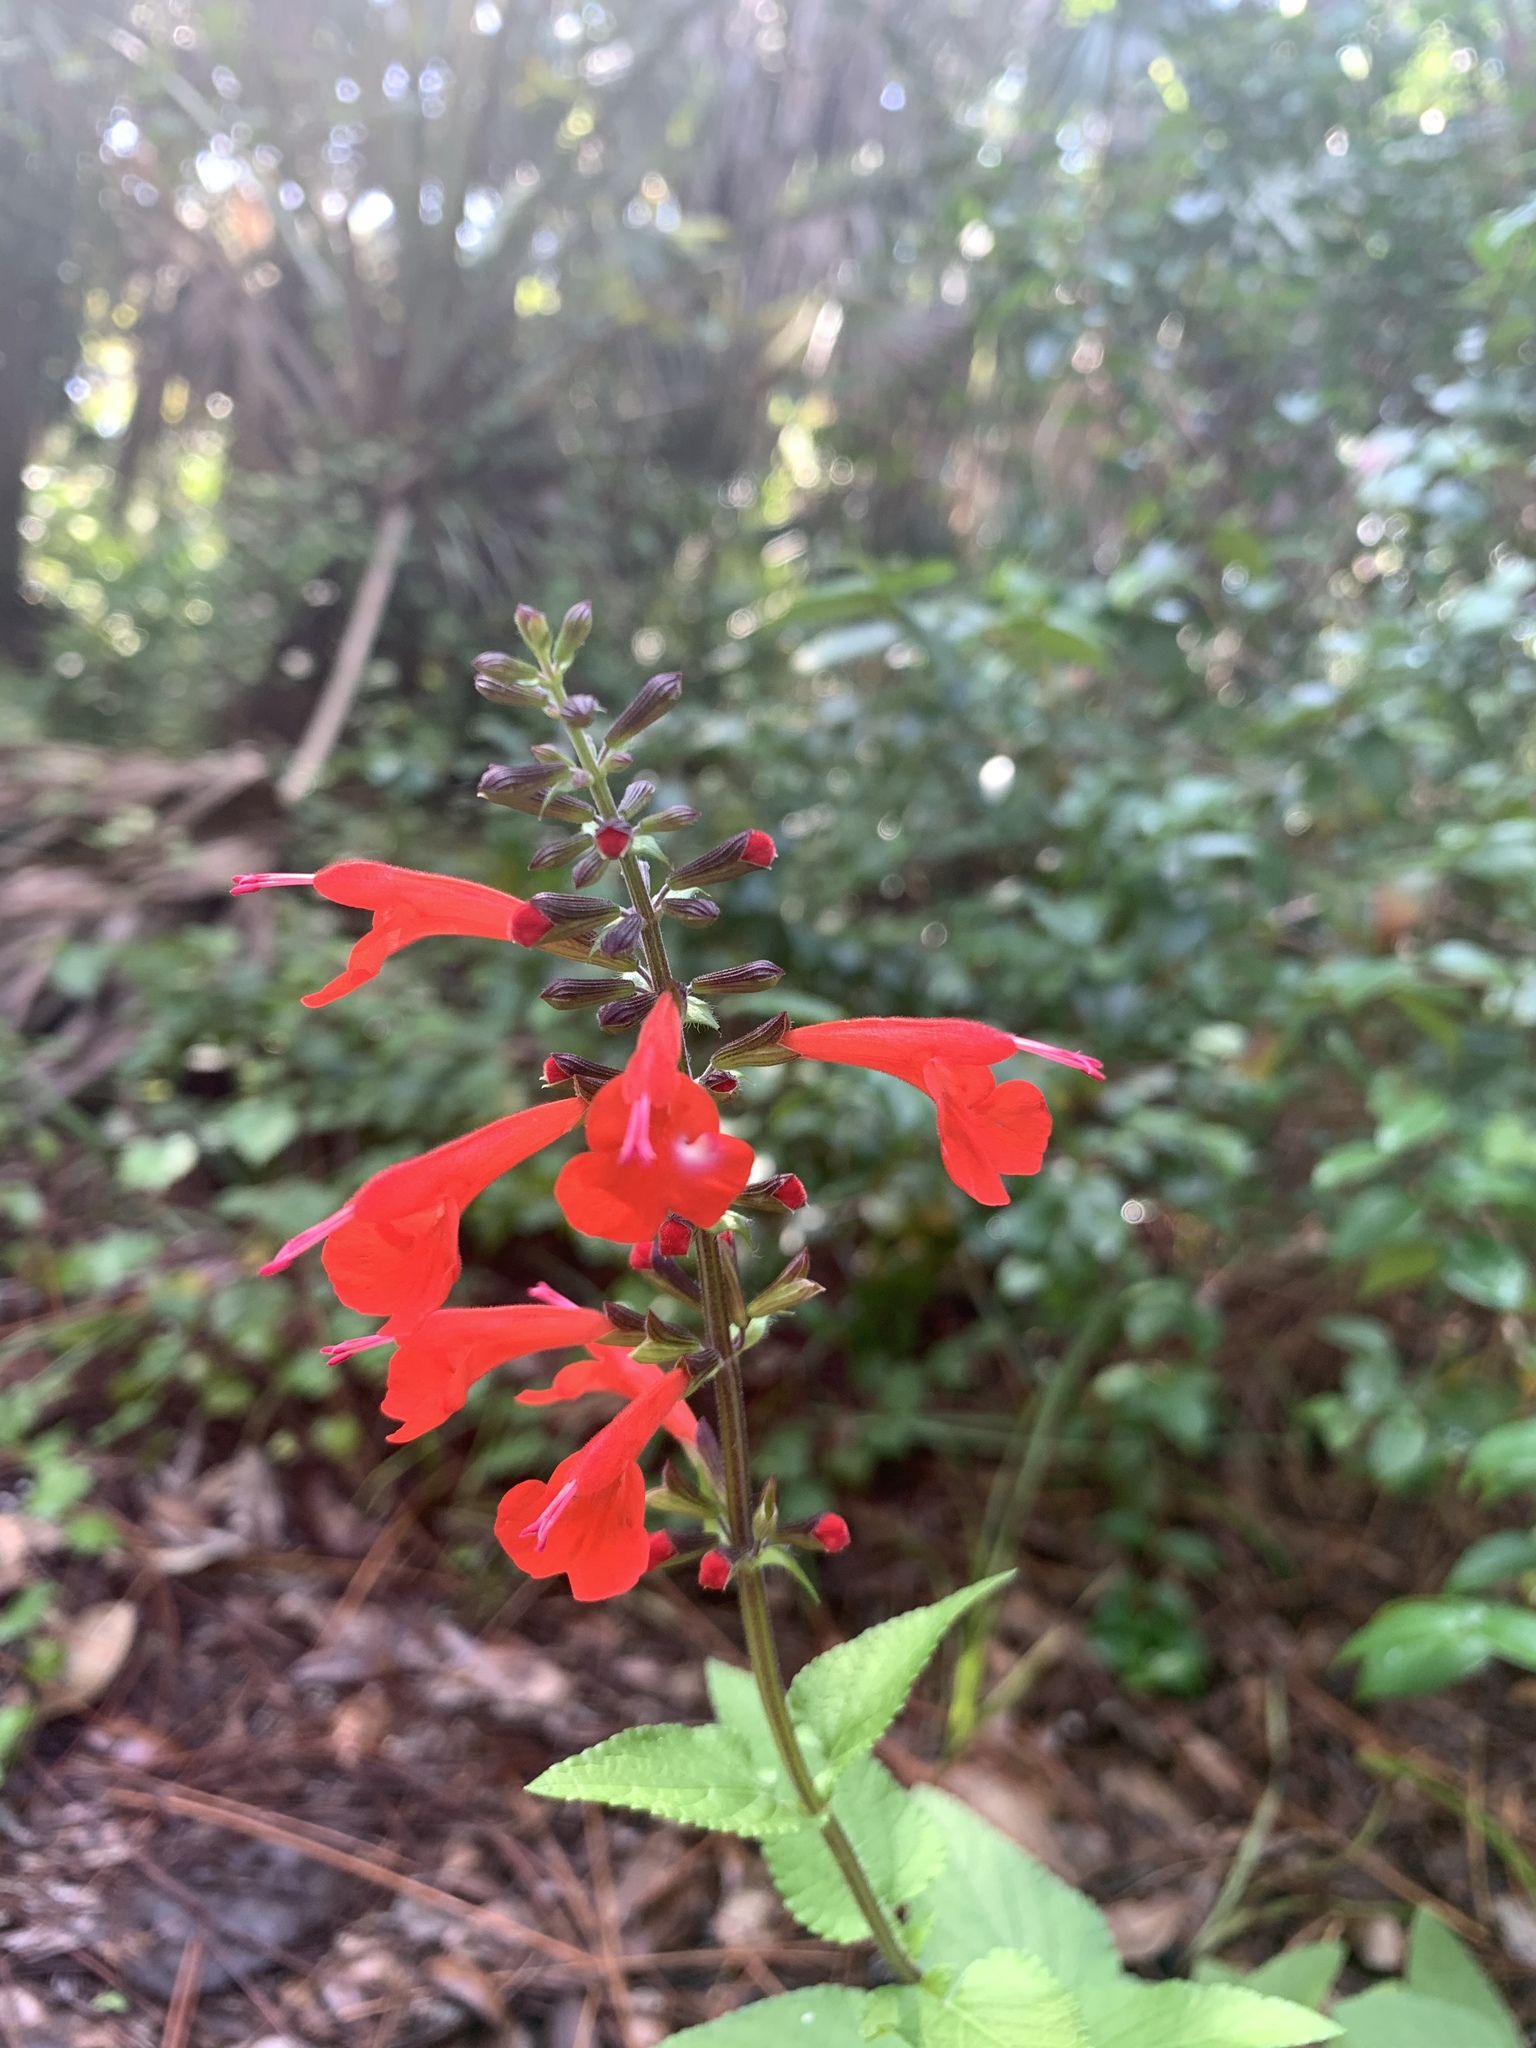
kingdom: Plantae
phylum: Tracheophyta
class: Magnoliopsida
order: Lamiales
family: Lamiaceae
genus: Salvia
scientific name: Salvia coccinea
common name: Blood sage
